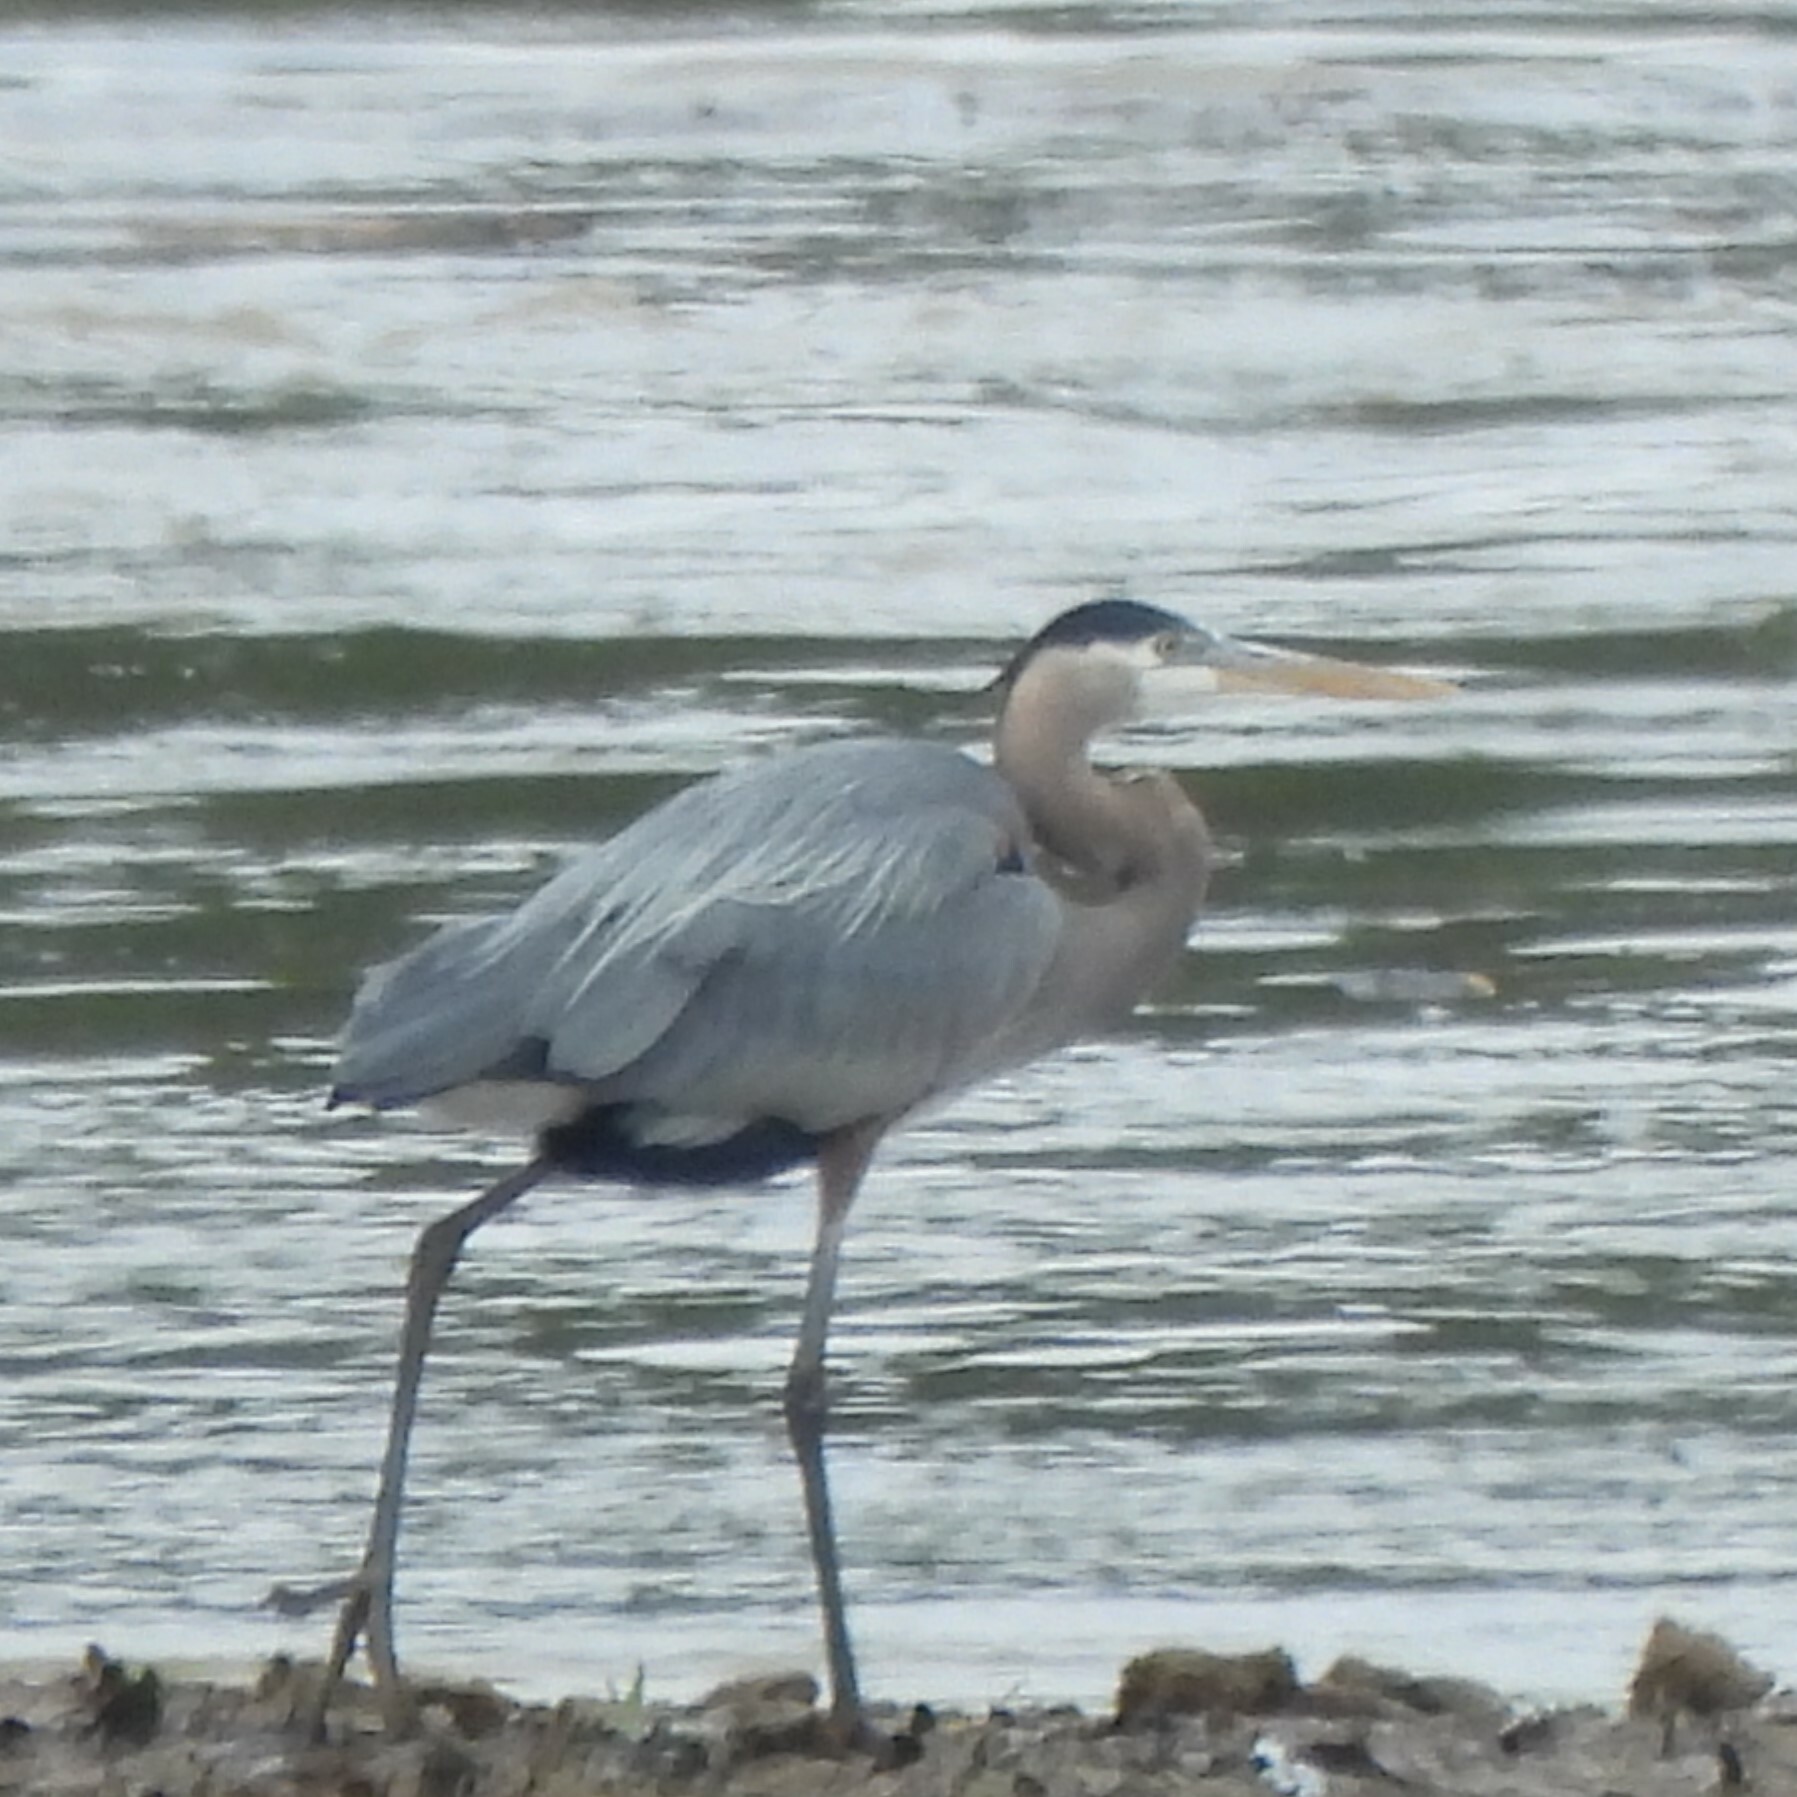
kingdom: Animalia
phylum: Chordata
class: Aves
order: Pelecaniformes
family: Ardeidae
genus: Ardea
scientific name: Ardea herodias
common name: Great blue heron
